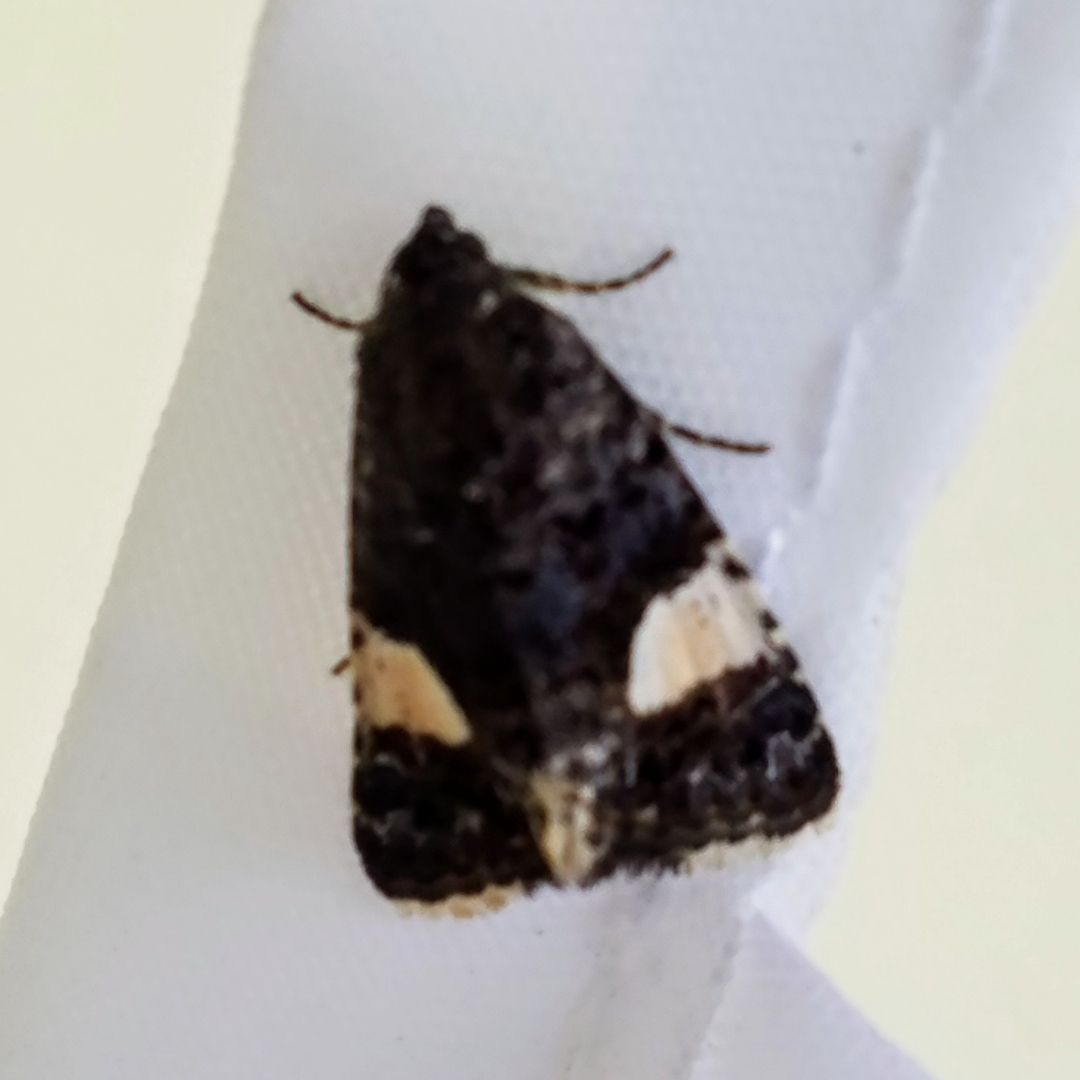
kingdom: Animalia
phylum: Arthropoda
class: Insecta
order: Lepidoptera
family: Erebidae
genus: Tyta
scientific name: Tyta luctuosa
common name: Four-spotted
